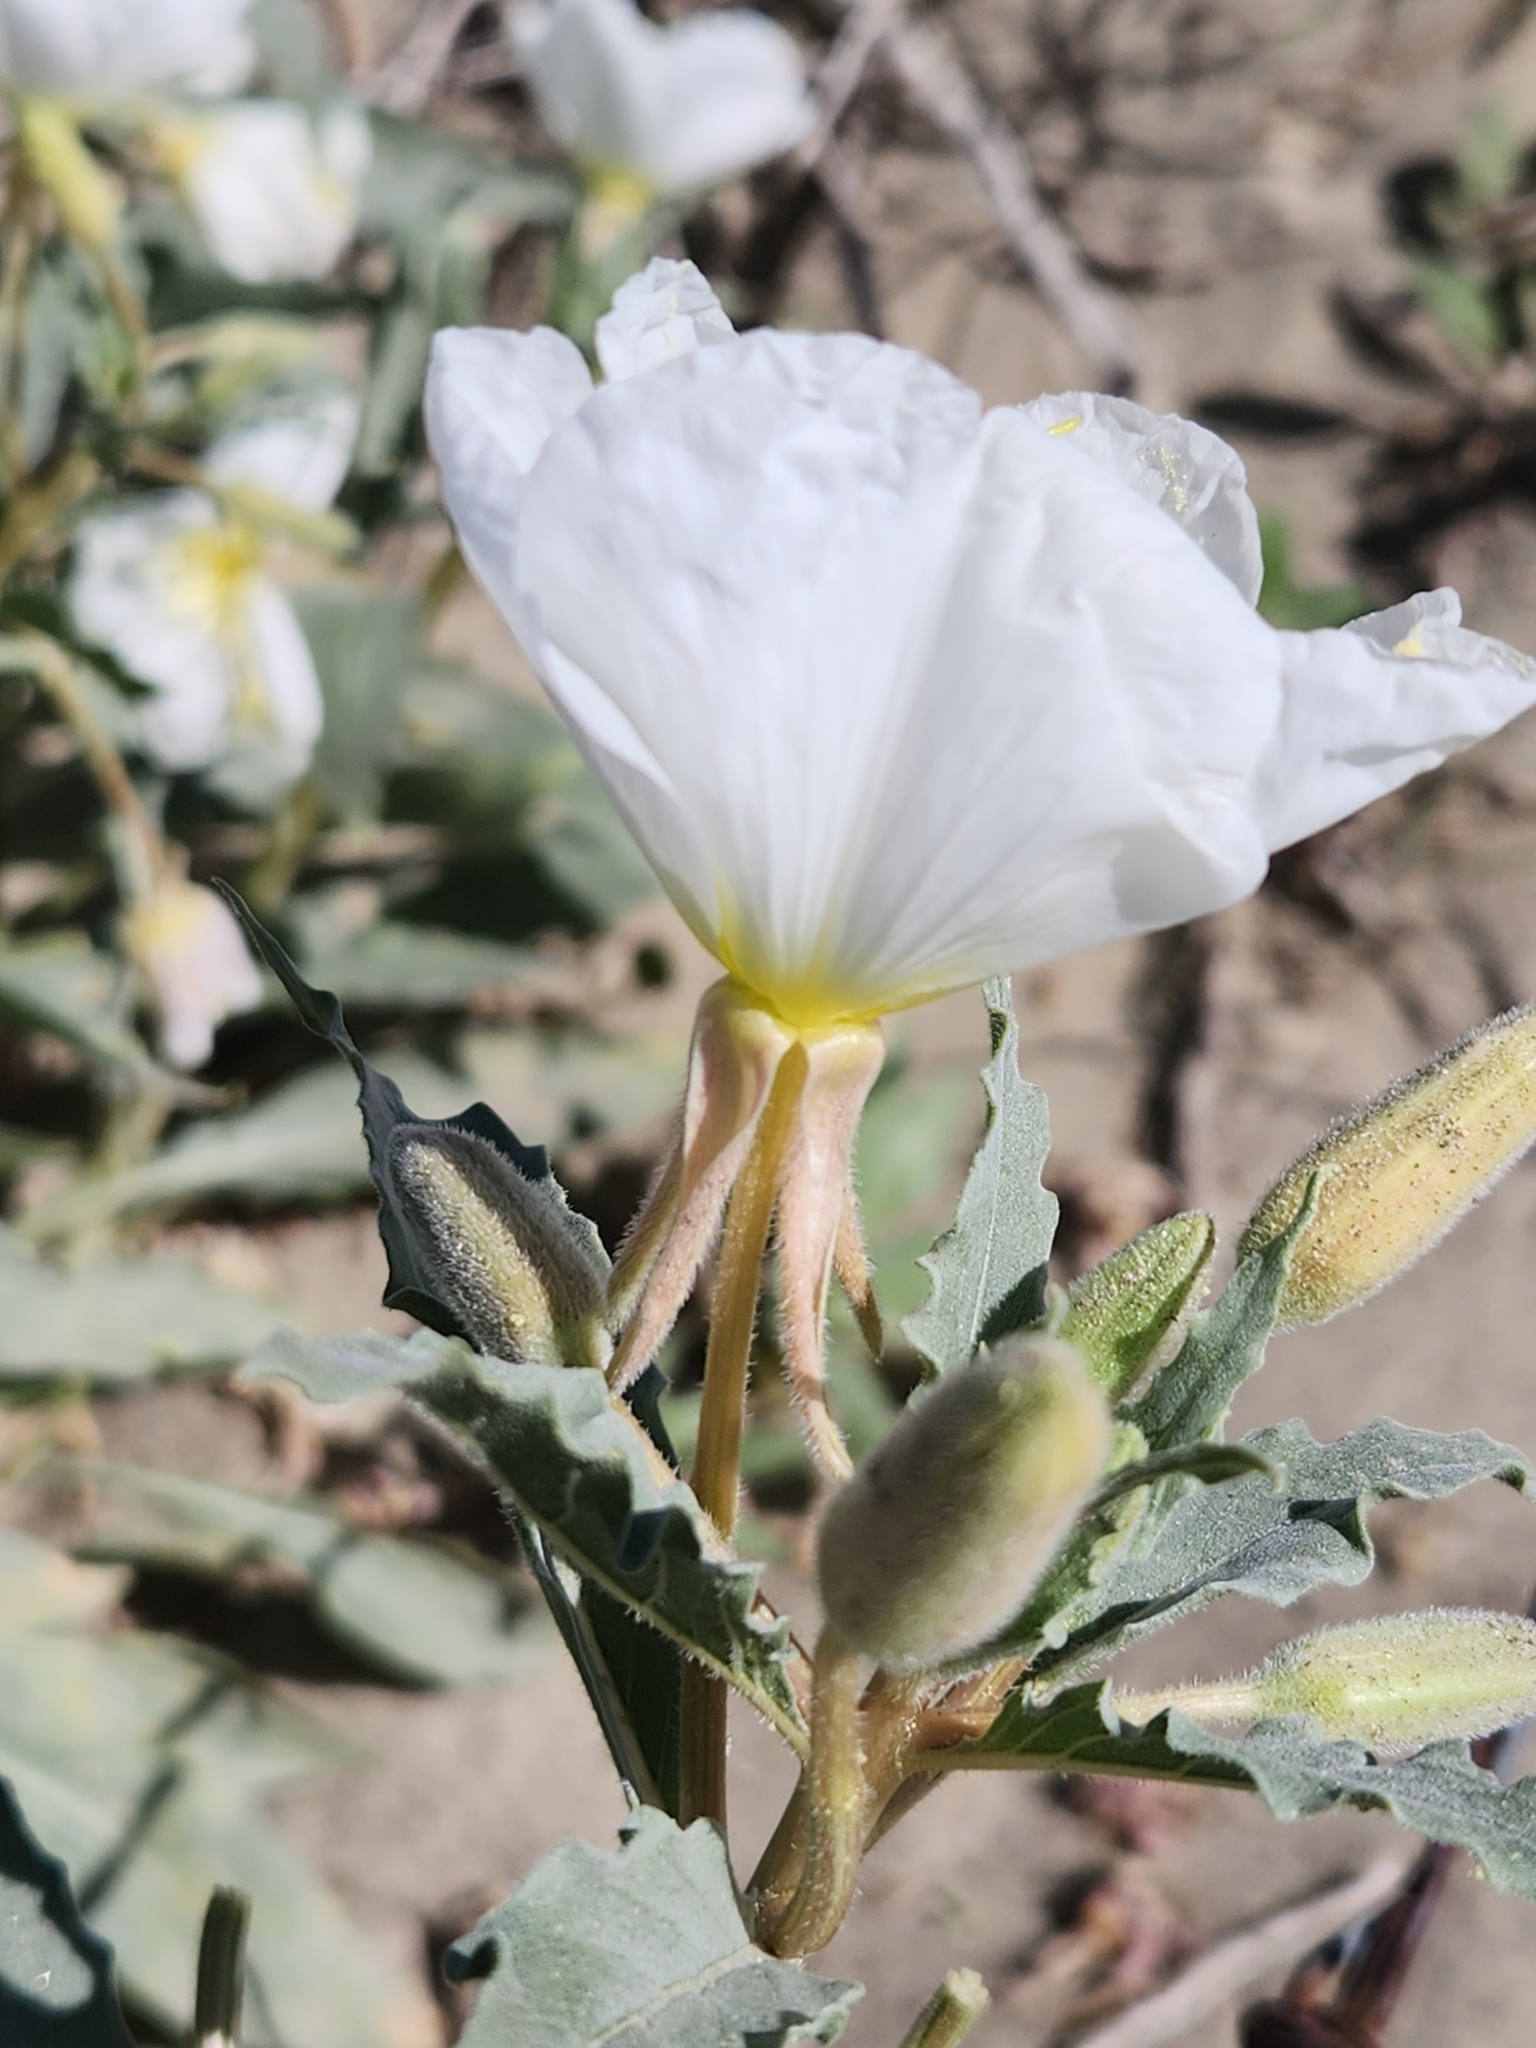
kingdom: Plantae
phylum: Tracheophyta
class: Magnoliopsida
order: Myrtales
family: Onagraceae
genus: Oenothera
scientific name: Oenothera deltoides
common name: Basket evening-primrose
